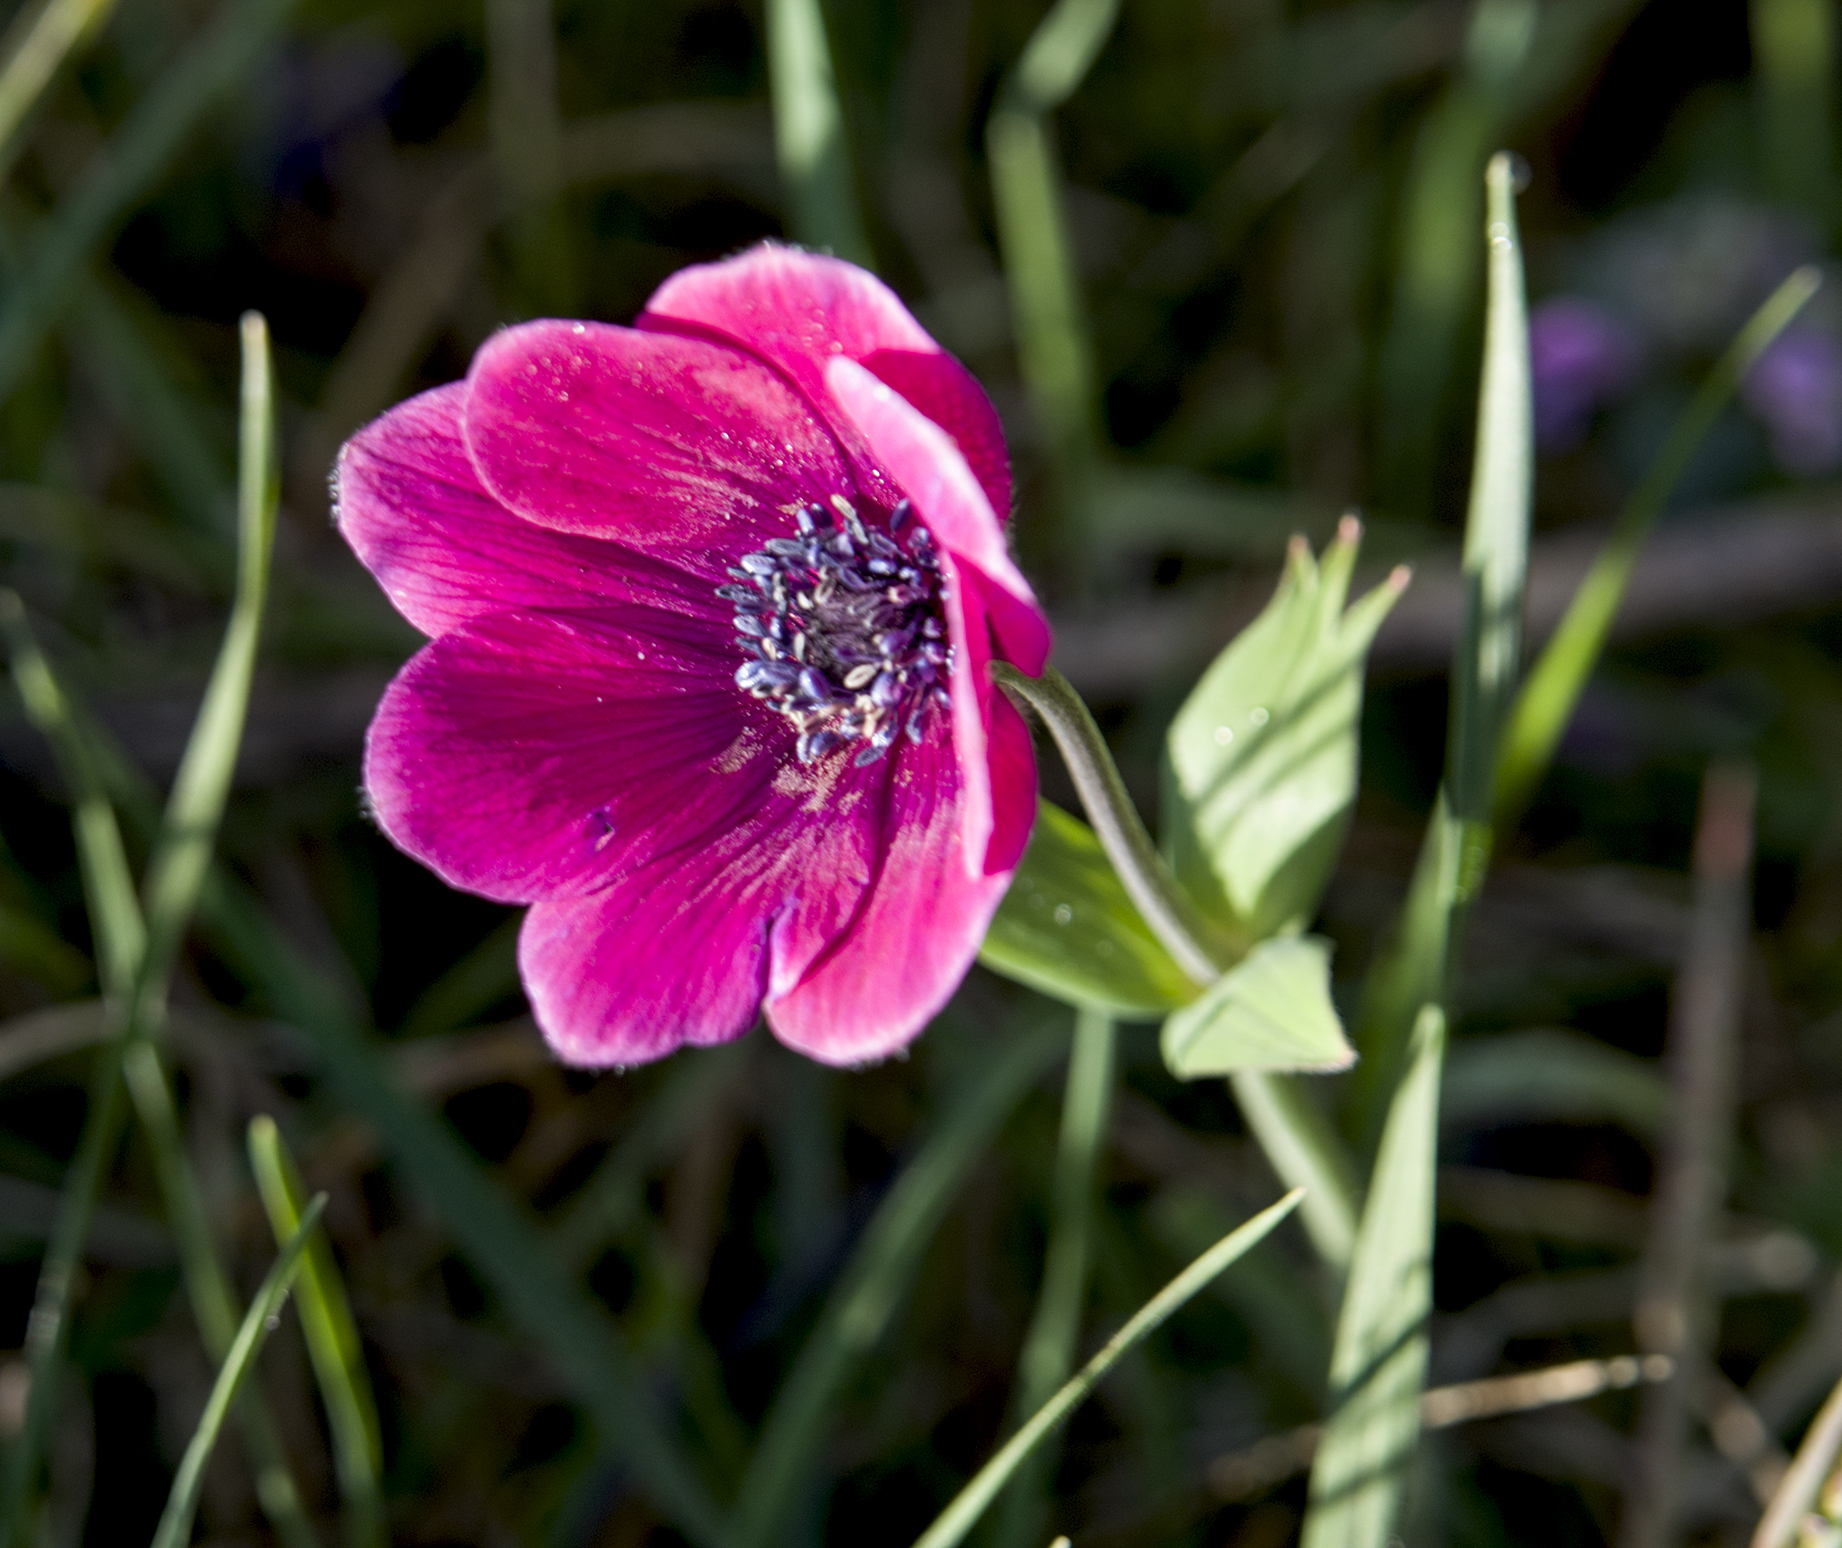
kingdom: Plantae
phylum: Tracheophyta
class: Magnoliopsida
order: Ranunculales
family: Ranunculaceae
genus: Anemone
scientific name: Anemone pavonina
